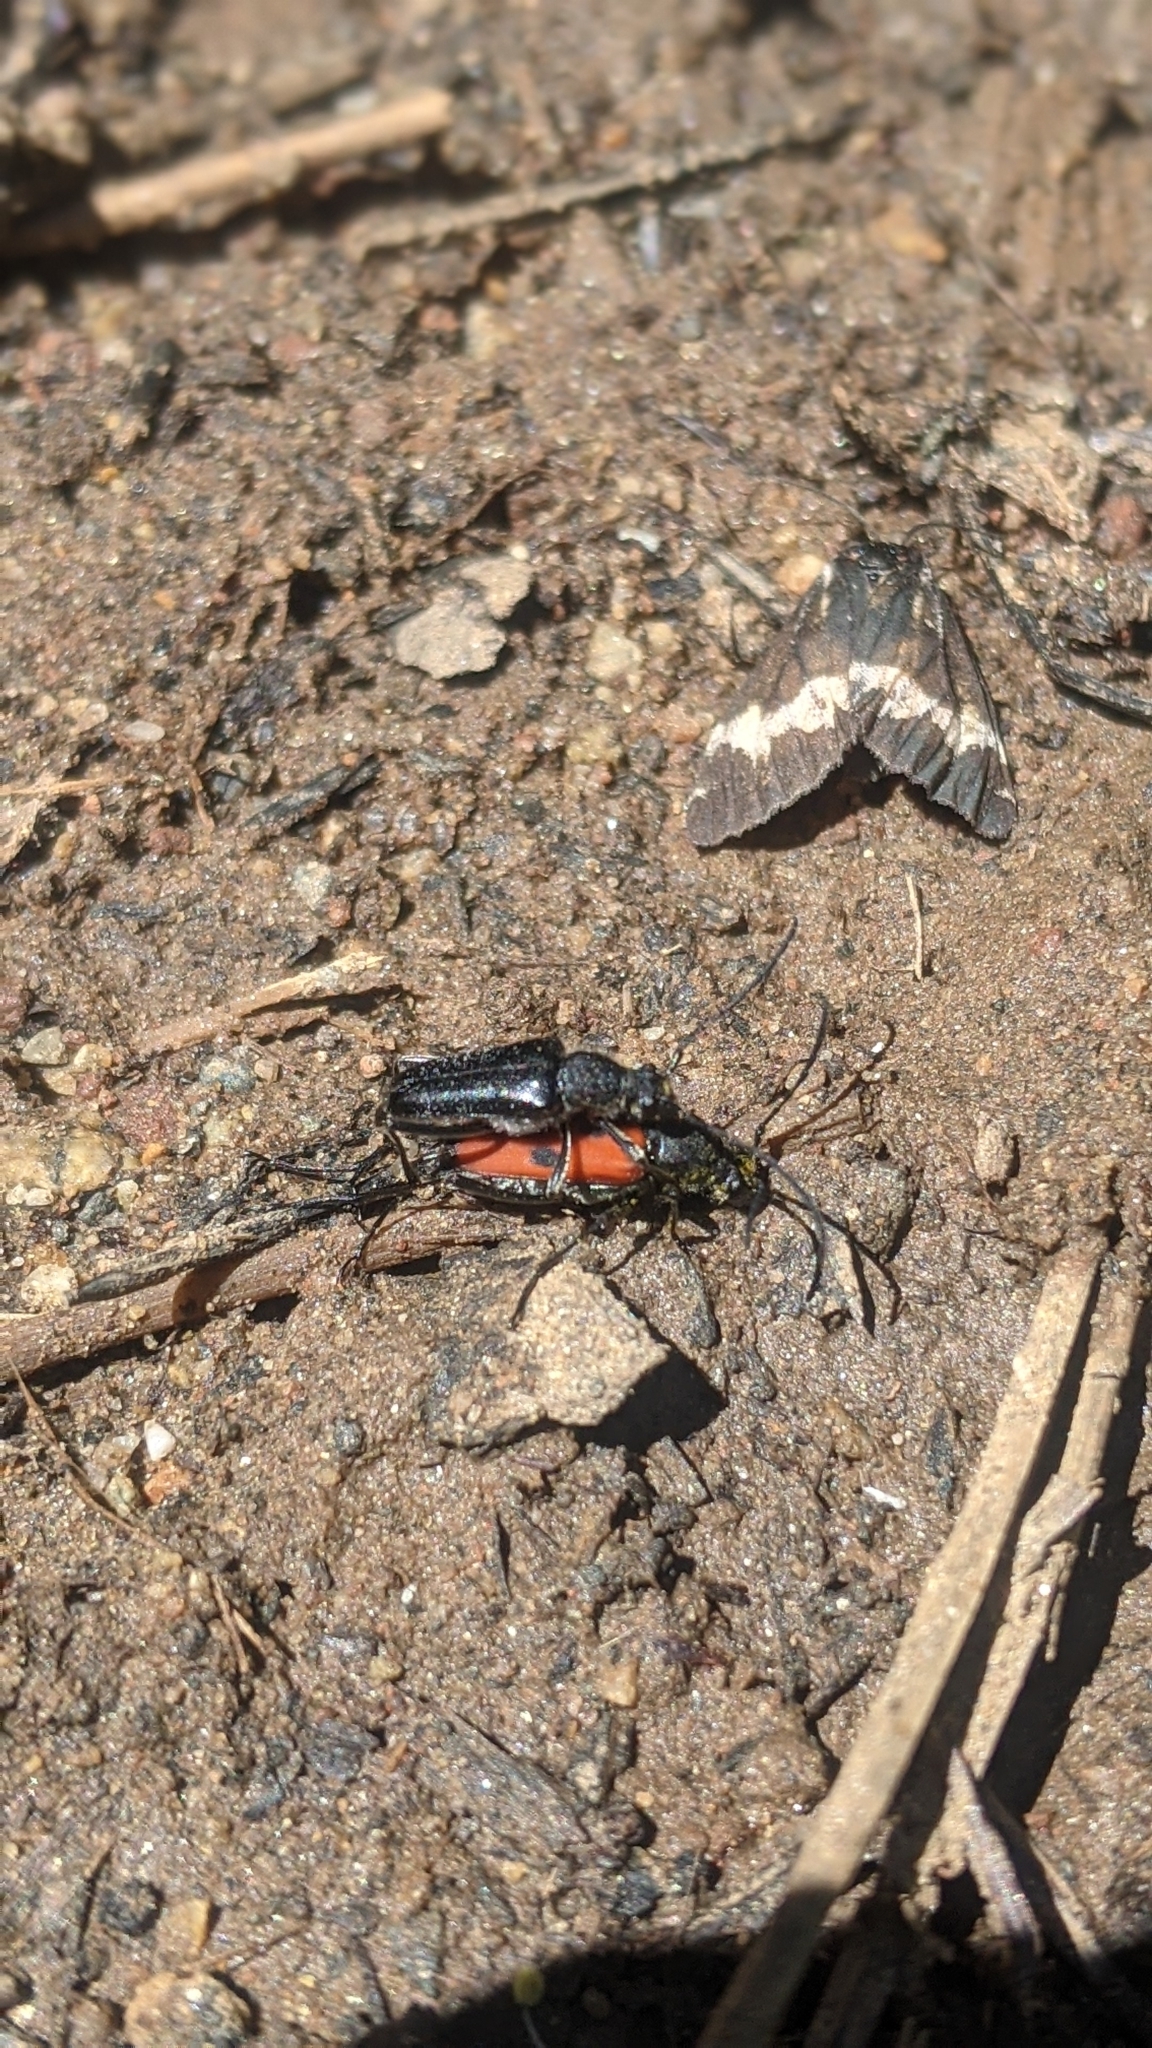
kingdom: Animalia
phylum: Arthropoda
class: Insecta
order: Coleoptera
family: Cerambycidae
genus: Anastrangalia
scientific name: Anastrangalia laetifica
